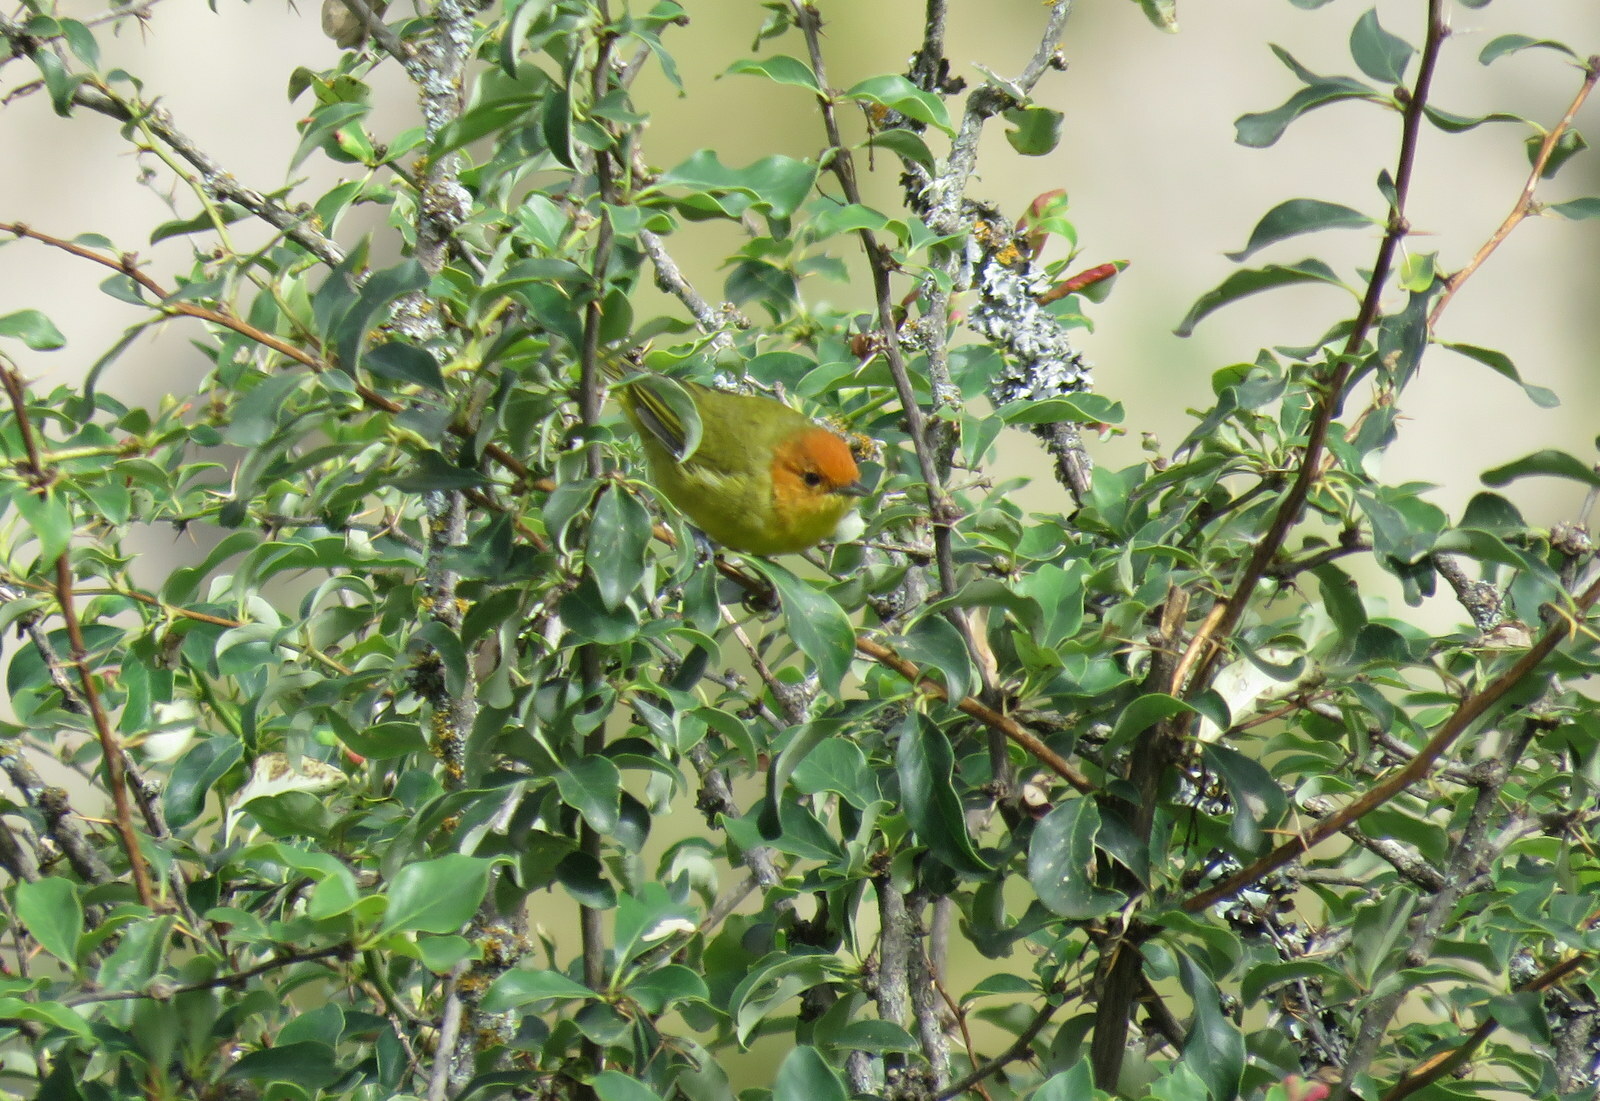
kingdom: Animalia
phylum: Chordata
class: Aves
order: Passeriformes
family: Thraupidae
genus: Thlypopsis
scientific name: Thlypopsis ruficeps
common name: Rust-and-yellow tanager
